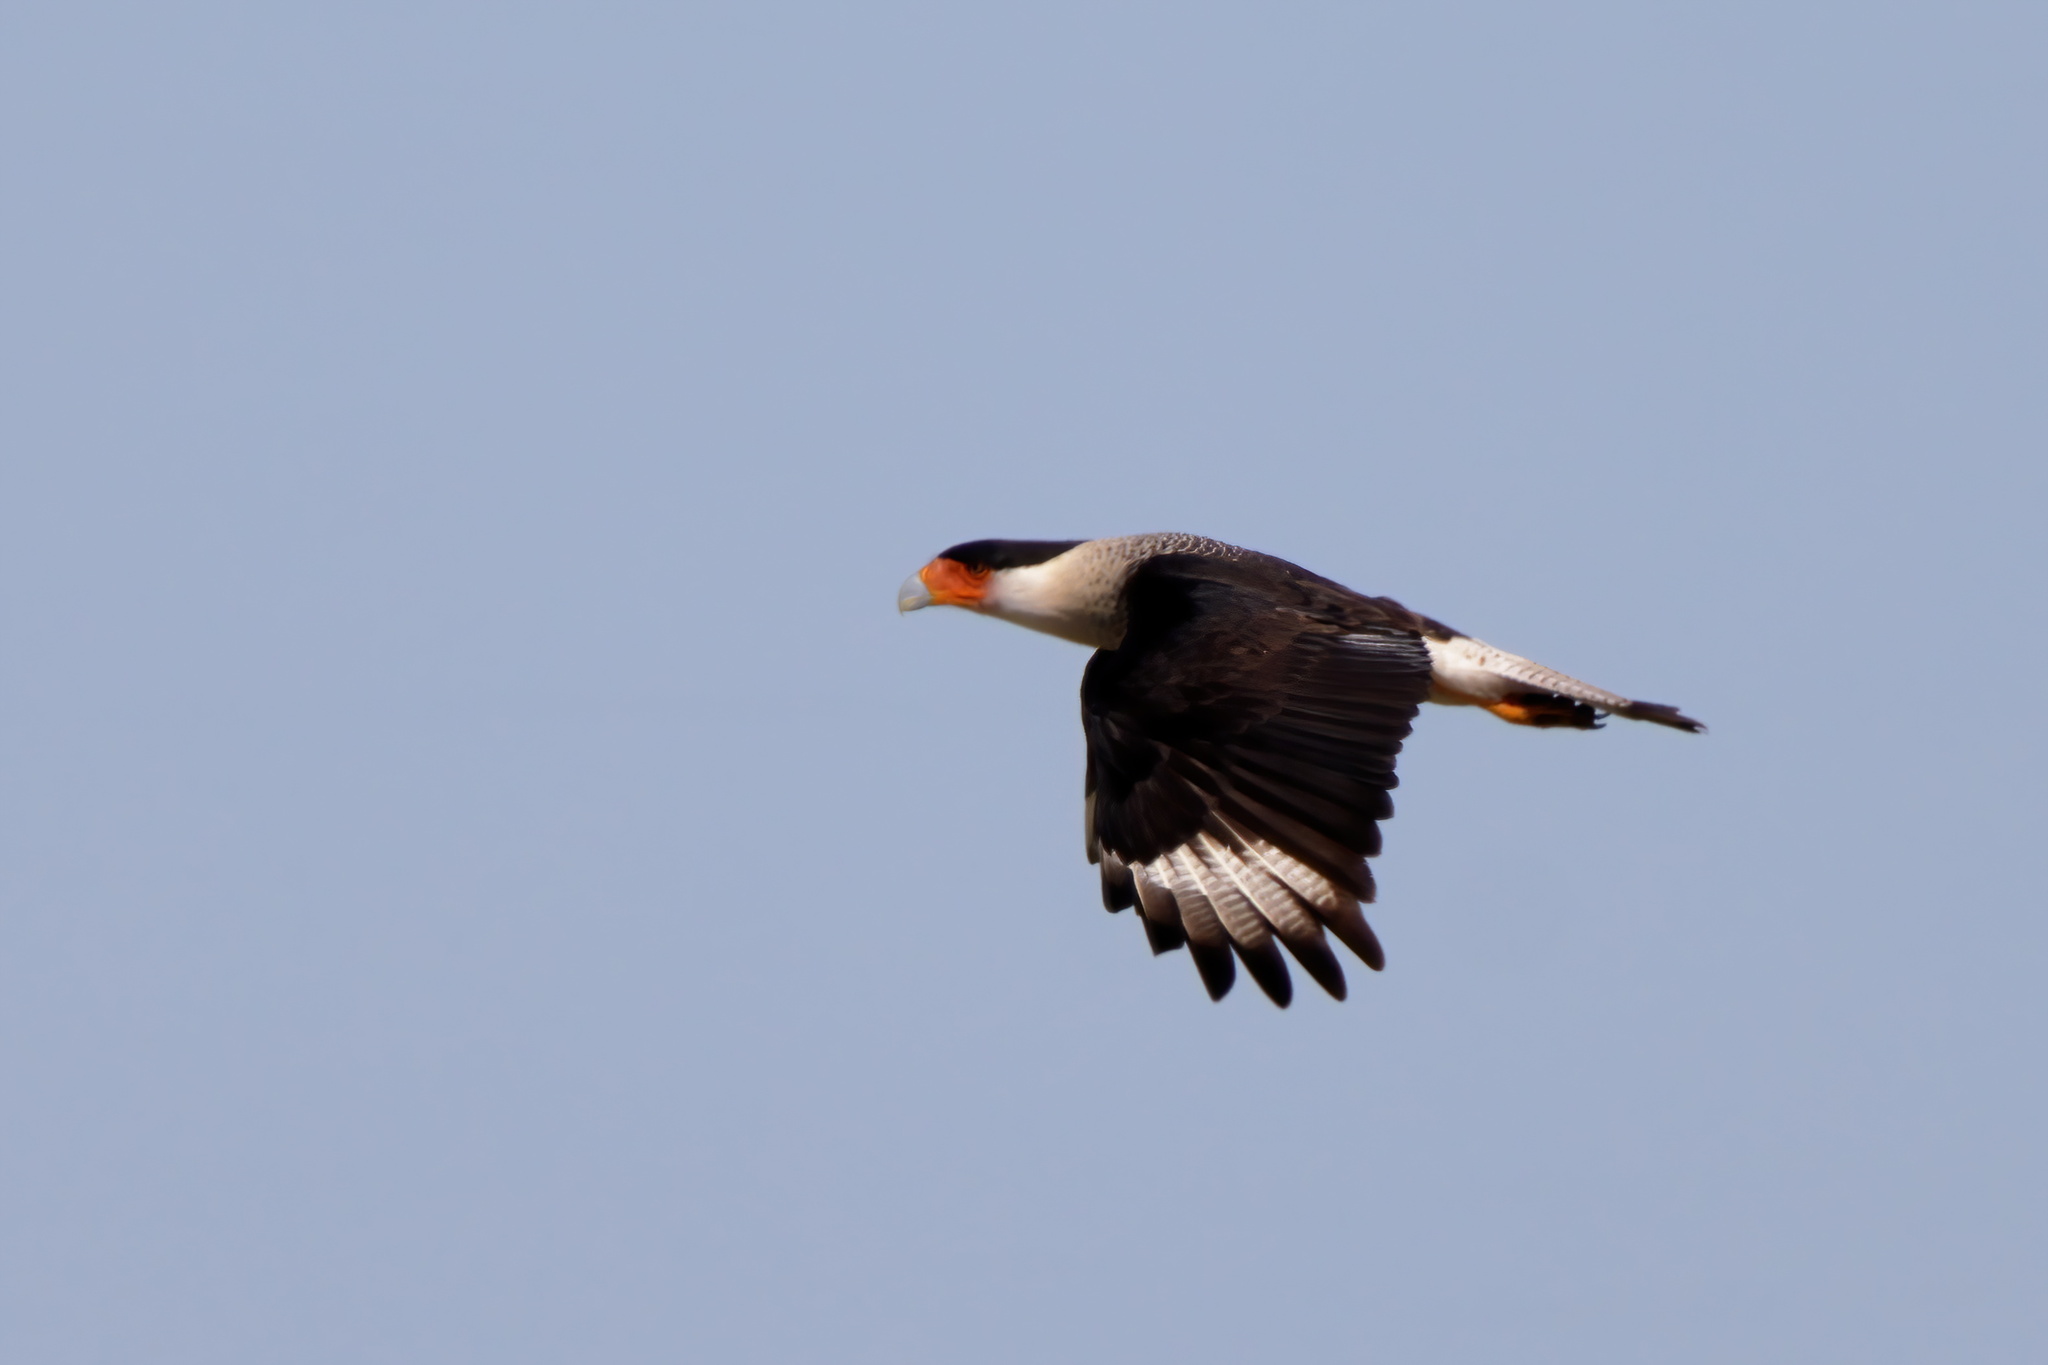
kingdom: Animalia
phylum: Chordata
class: Aves
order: Falconiformes
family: Falconidae
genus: Caracara
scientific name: Caracara plancus
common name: Southern caracara
